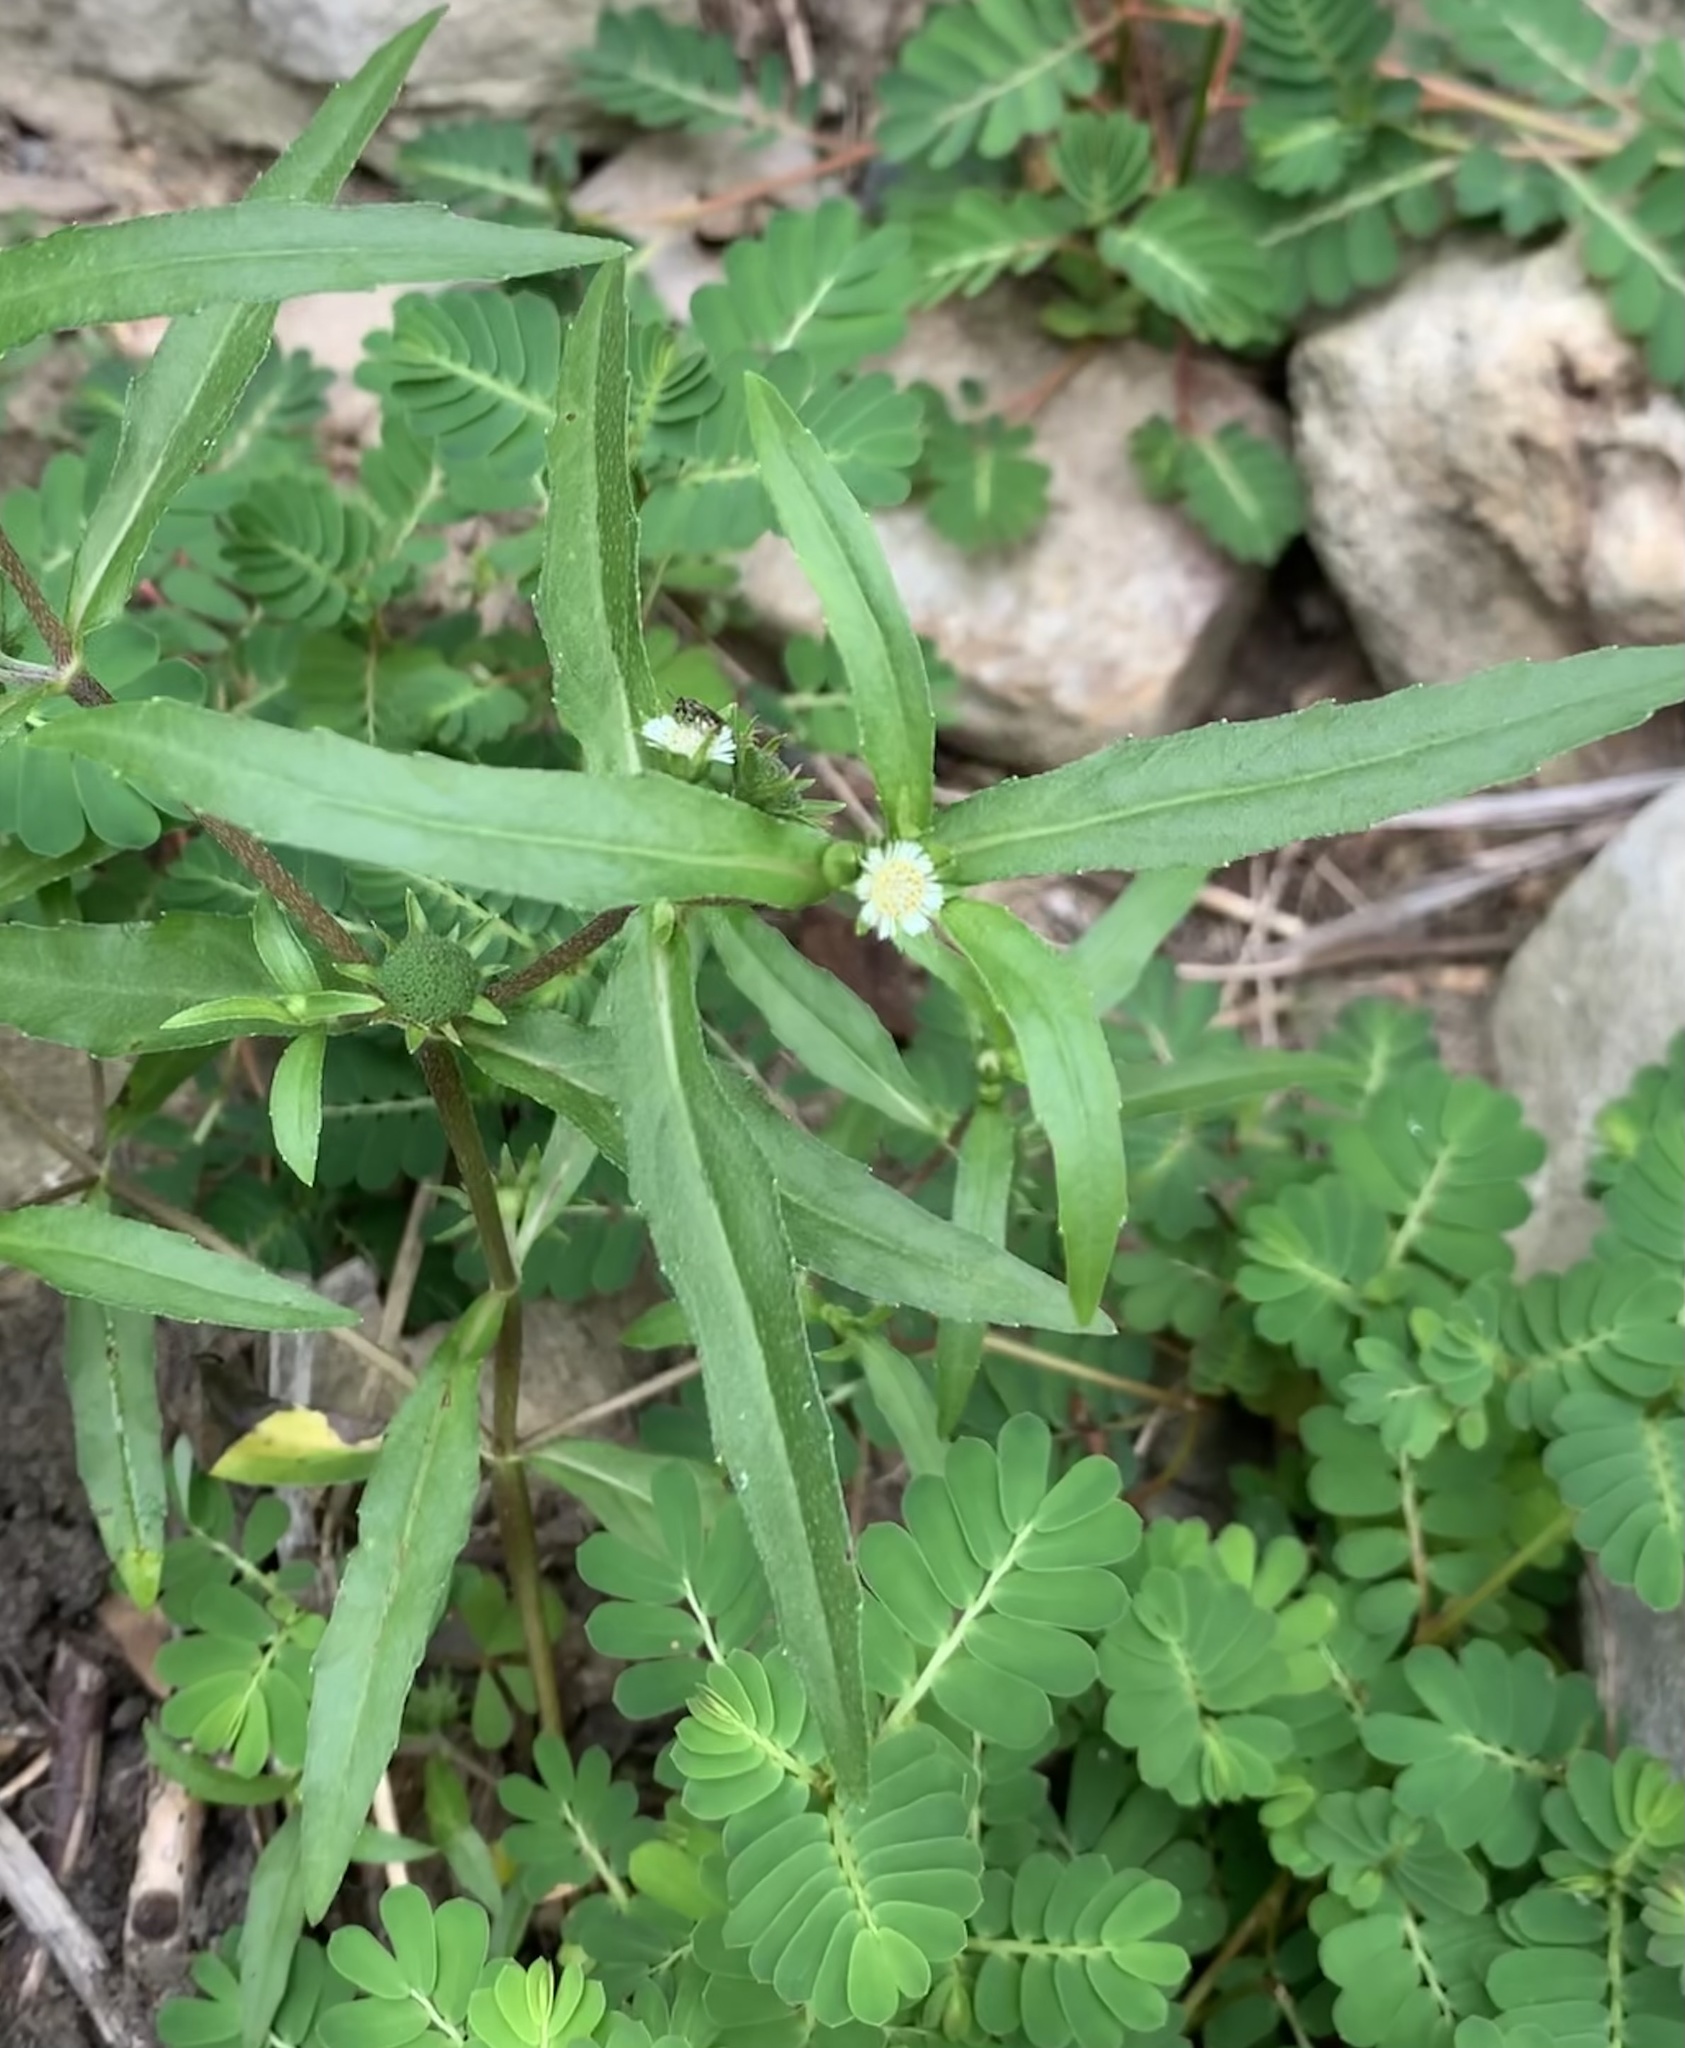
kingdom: Plantae
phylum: Tracheophyta
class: Magnoliopsida
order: Asterales
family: Asteraceae
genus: Eclipta
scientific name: Eclipta prostrata
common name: False daisy
